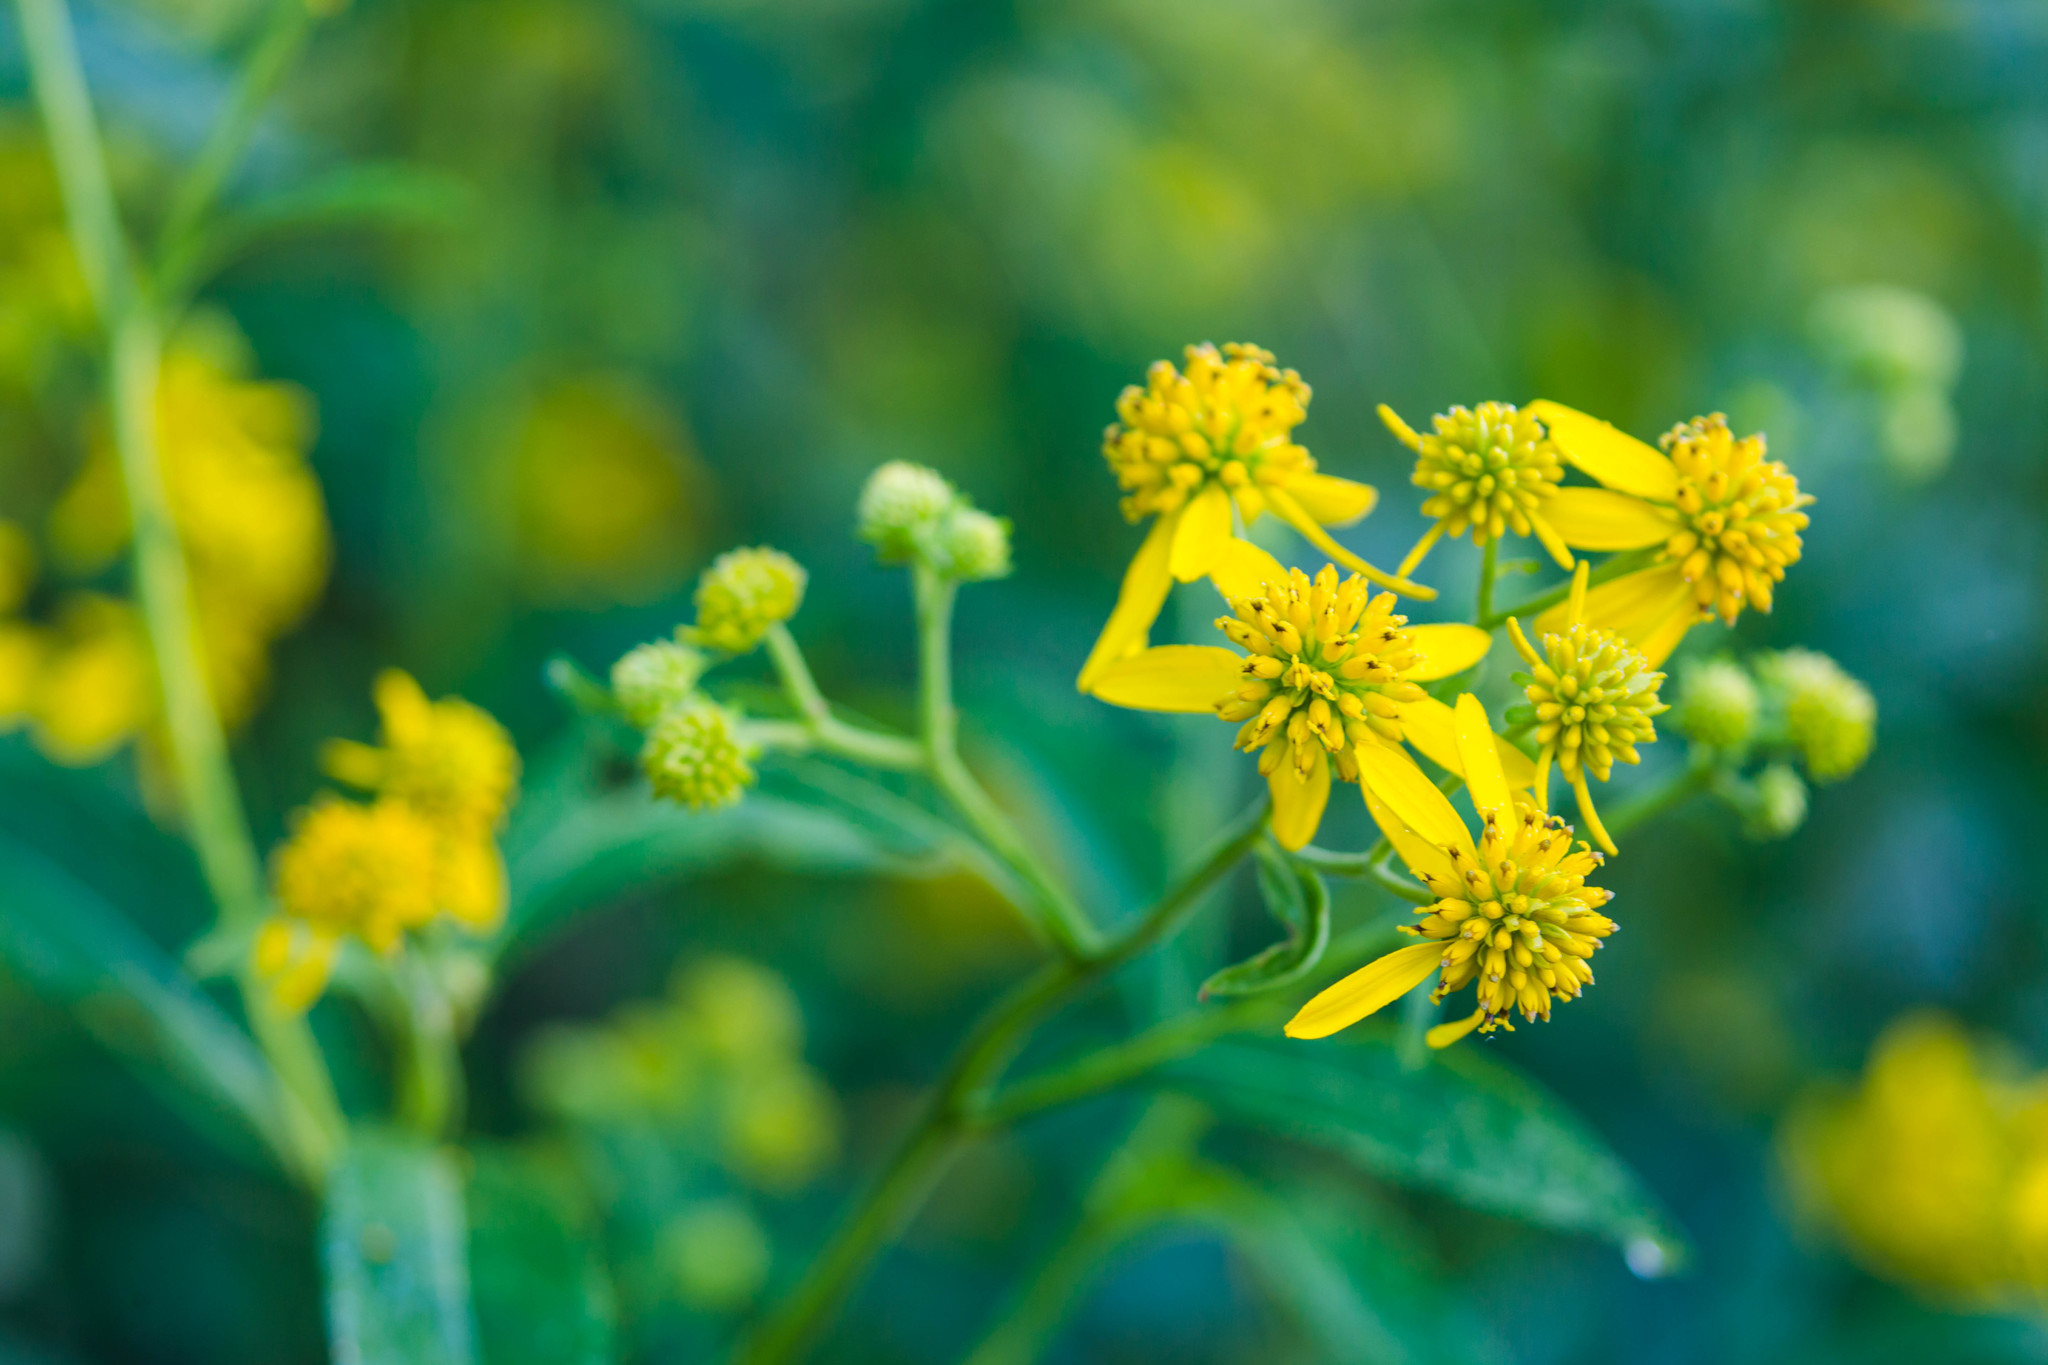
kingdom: Plantae
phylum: Tracheophyta
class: Magnoliopsida
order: Asterales
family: Asteraceae
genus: Verbesina
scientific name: Verbesina alternifolia
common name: Wingstem
